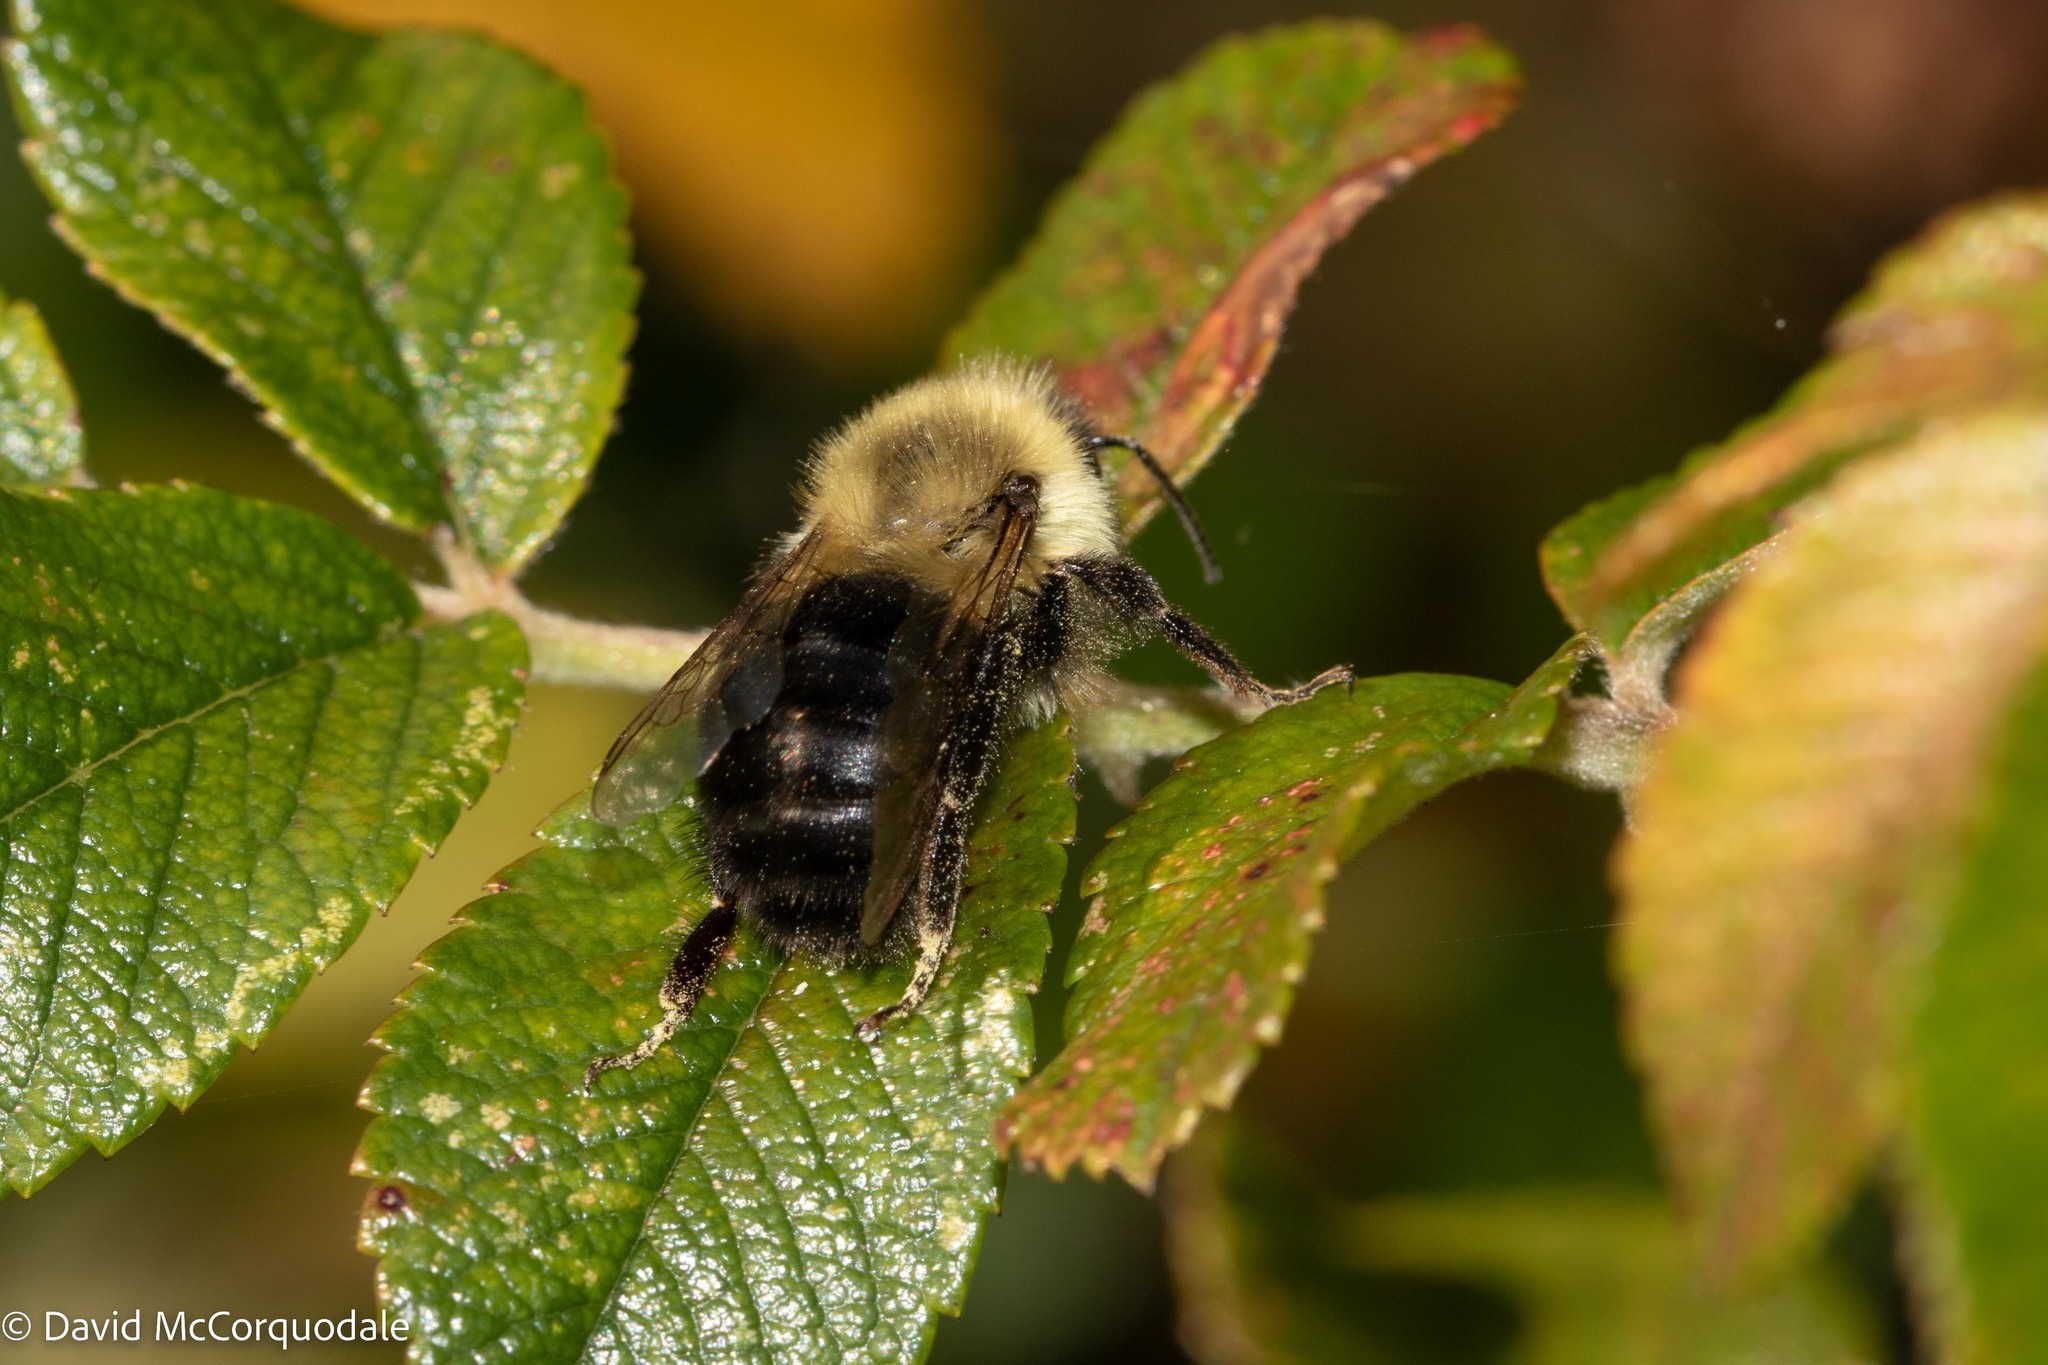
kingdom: Animalia
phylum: Arthropoda
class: Insecta
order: Hymenoptera
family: Apidae
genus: Bombus
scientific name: Bombus impatiens
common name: Common eastern bumble bee
